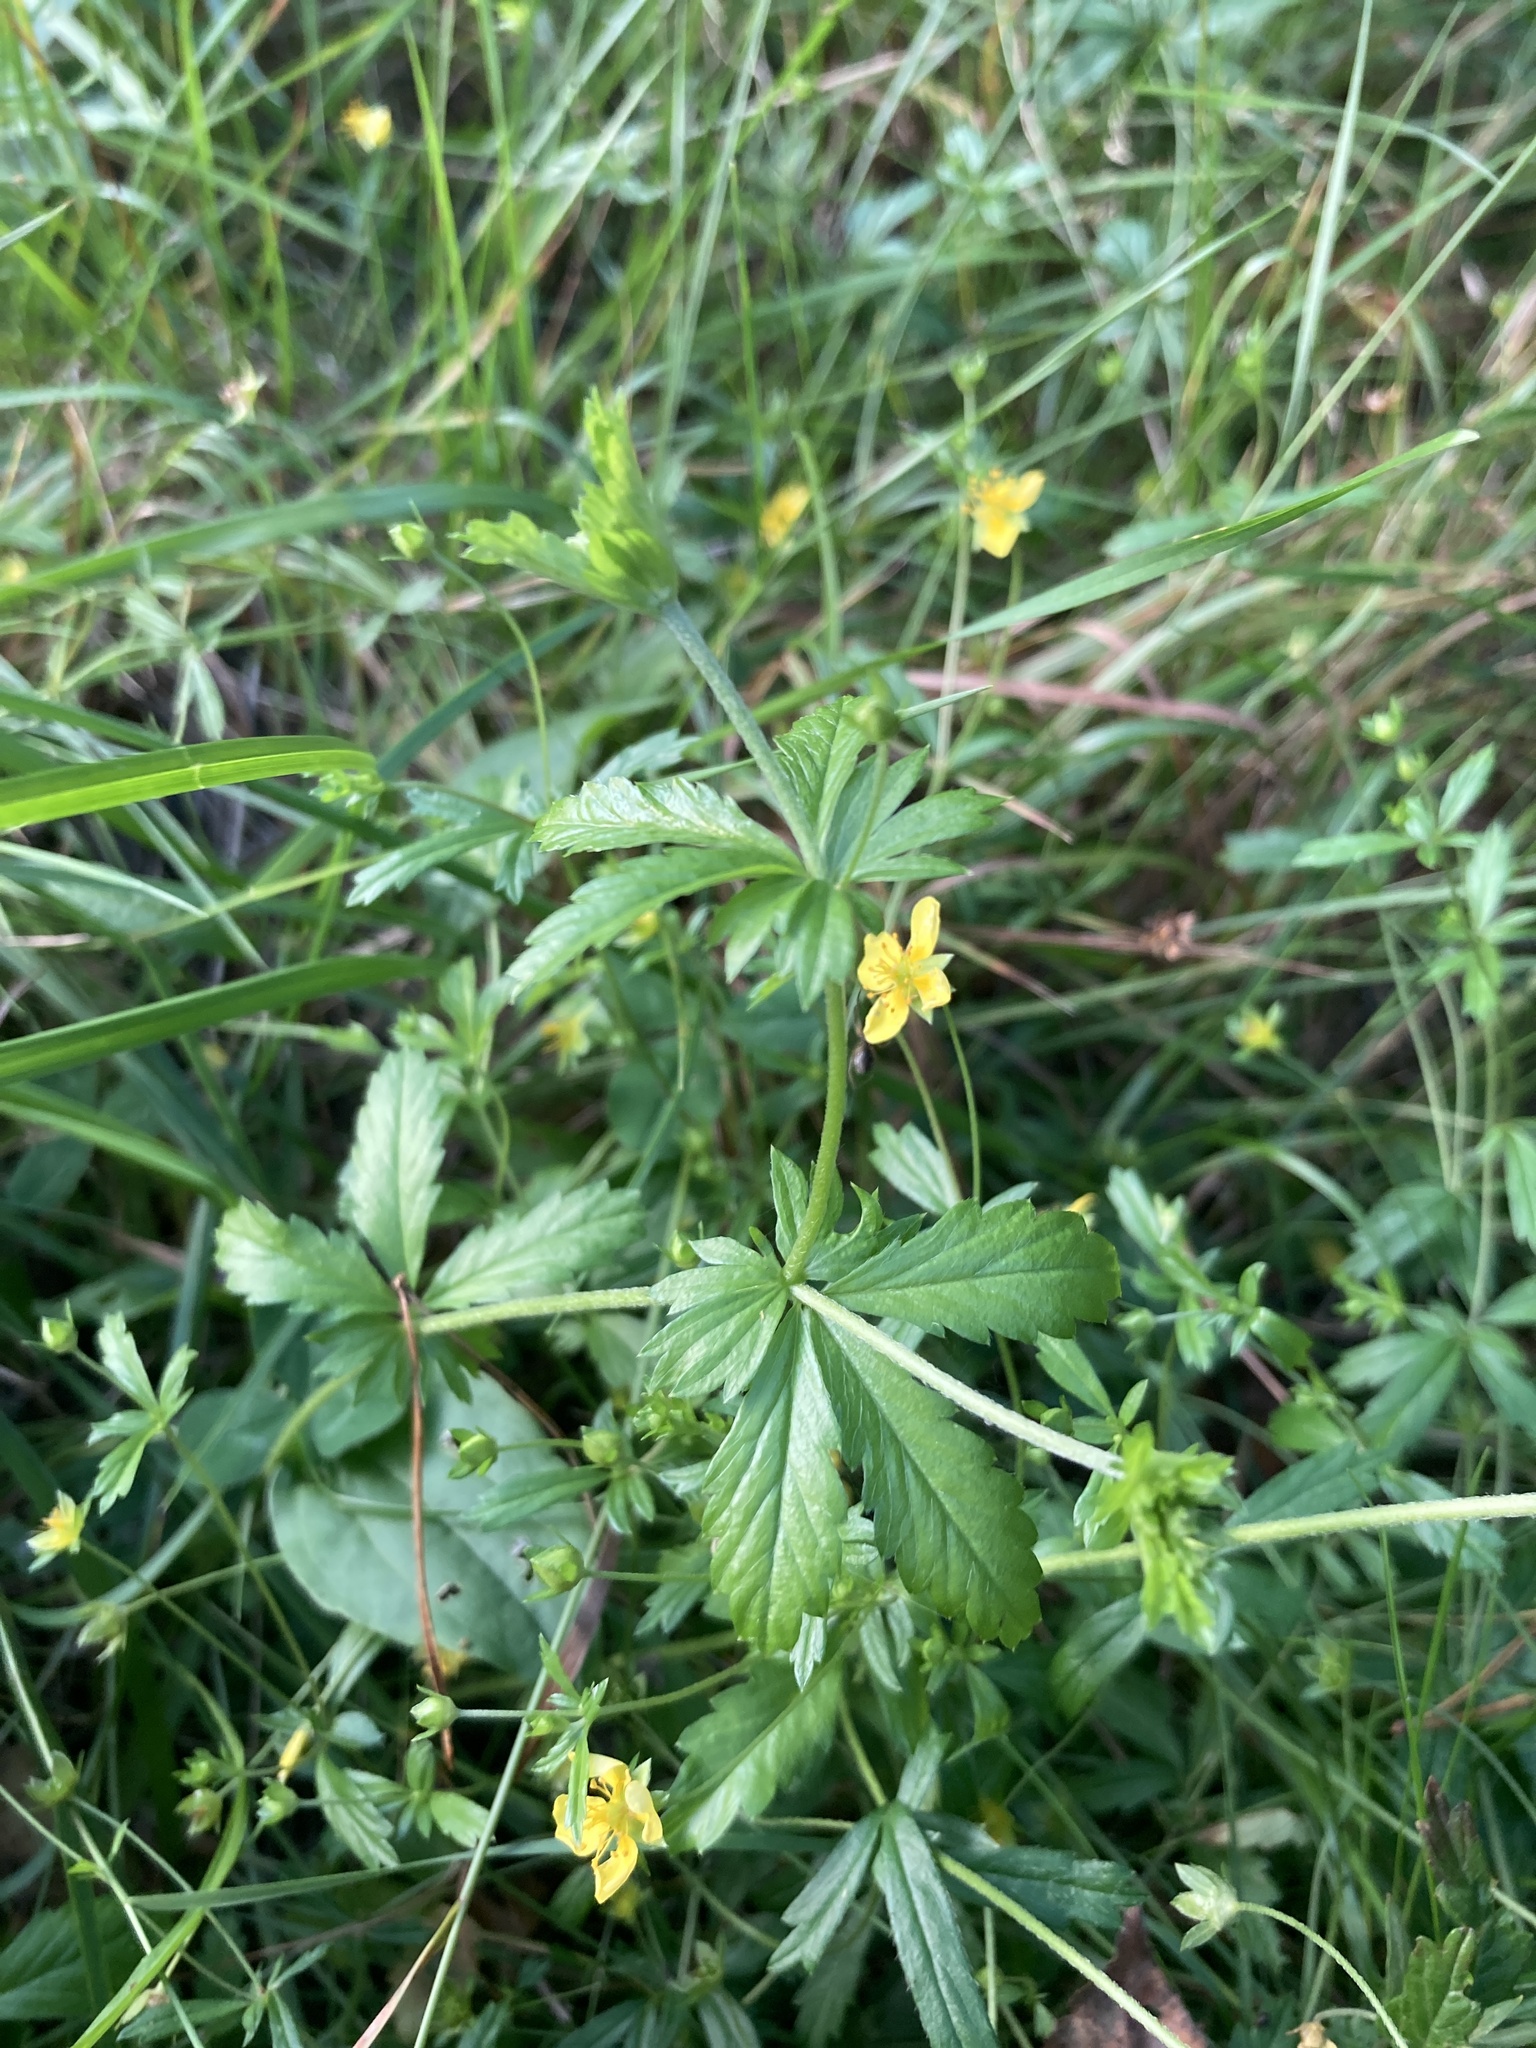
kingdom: Plantae
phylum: Tracheophyta
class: Magnoliopsida
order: Rosales
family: Rosaceae
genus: Potentilla
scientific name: Potentilla erecta
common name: Tormentil
